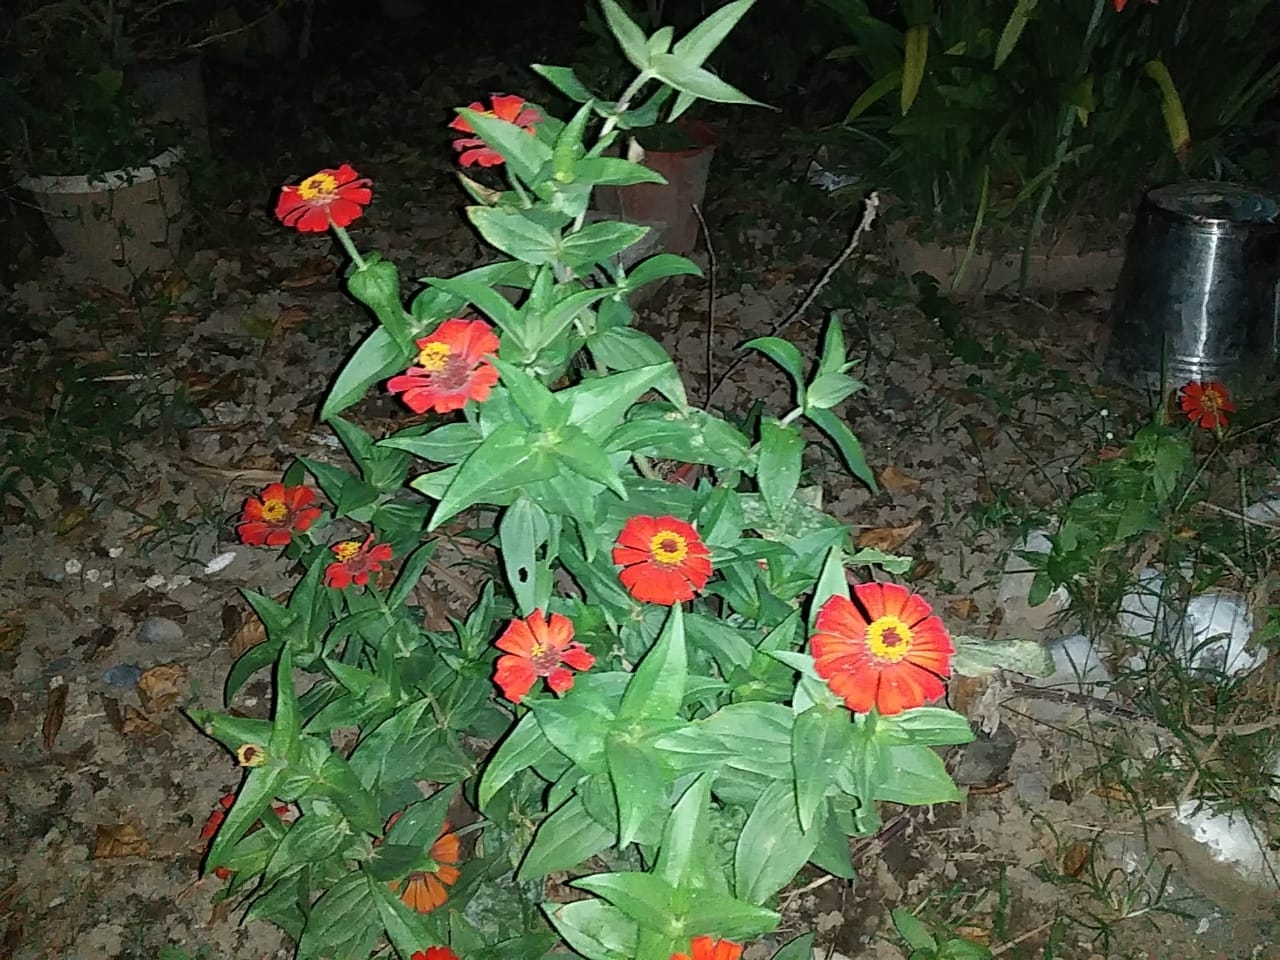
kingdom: Plantae
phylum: Tracheophyta
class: Magnoliopsida
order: Asterales
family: Asteraceae
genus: Zinnia
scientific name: Zinnia elegans
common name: Youth-and-age
